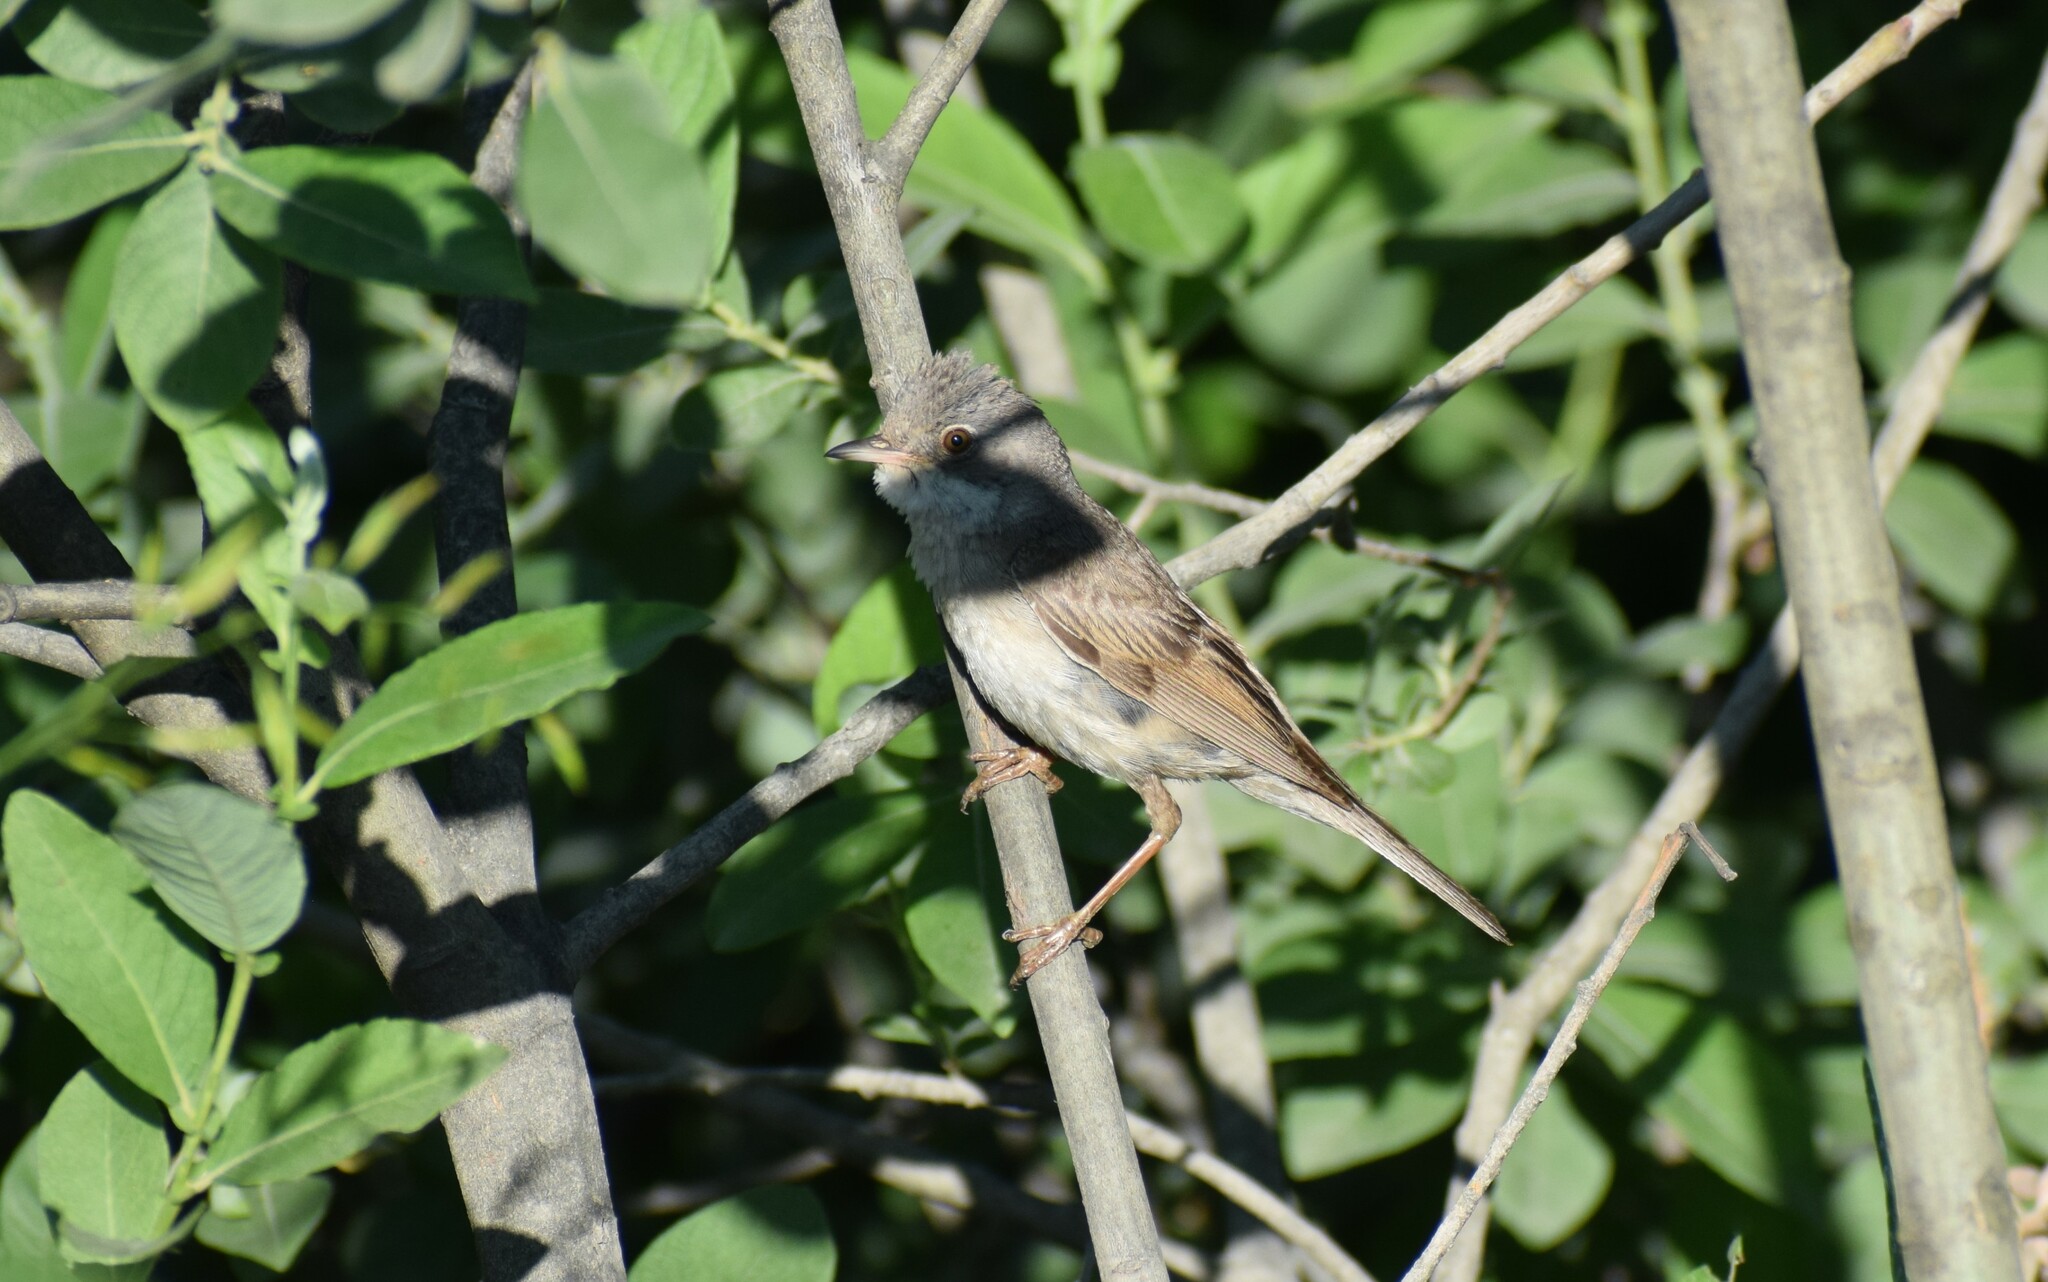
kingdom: Animalia
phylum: Chordata
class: Aves
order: Passeriformes
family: Sylviidae
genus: Sylvia
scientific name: Sylvia communis
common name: Common whitethroat
